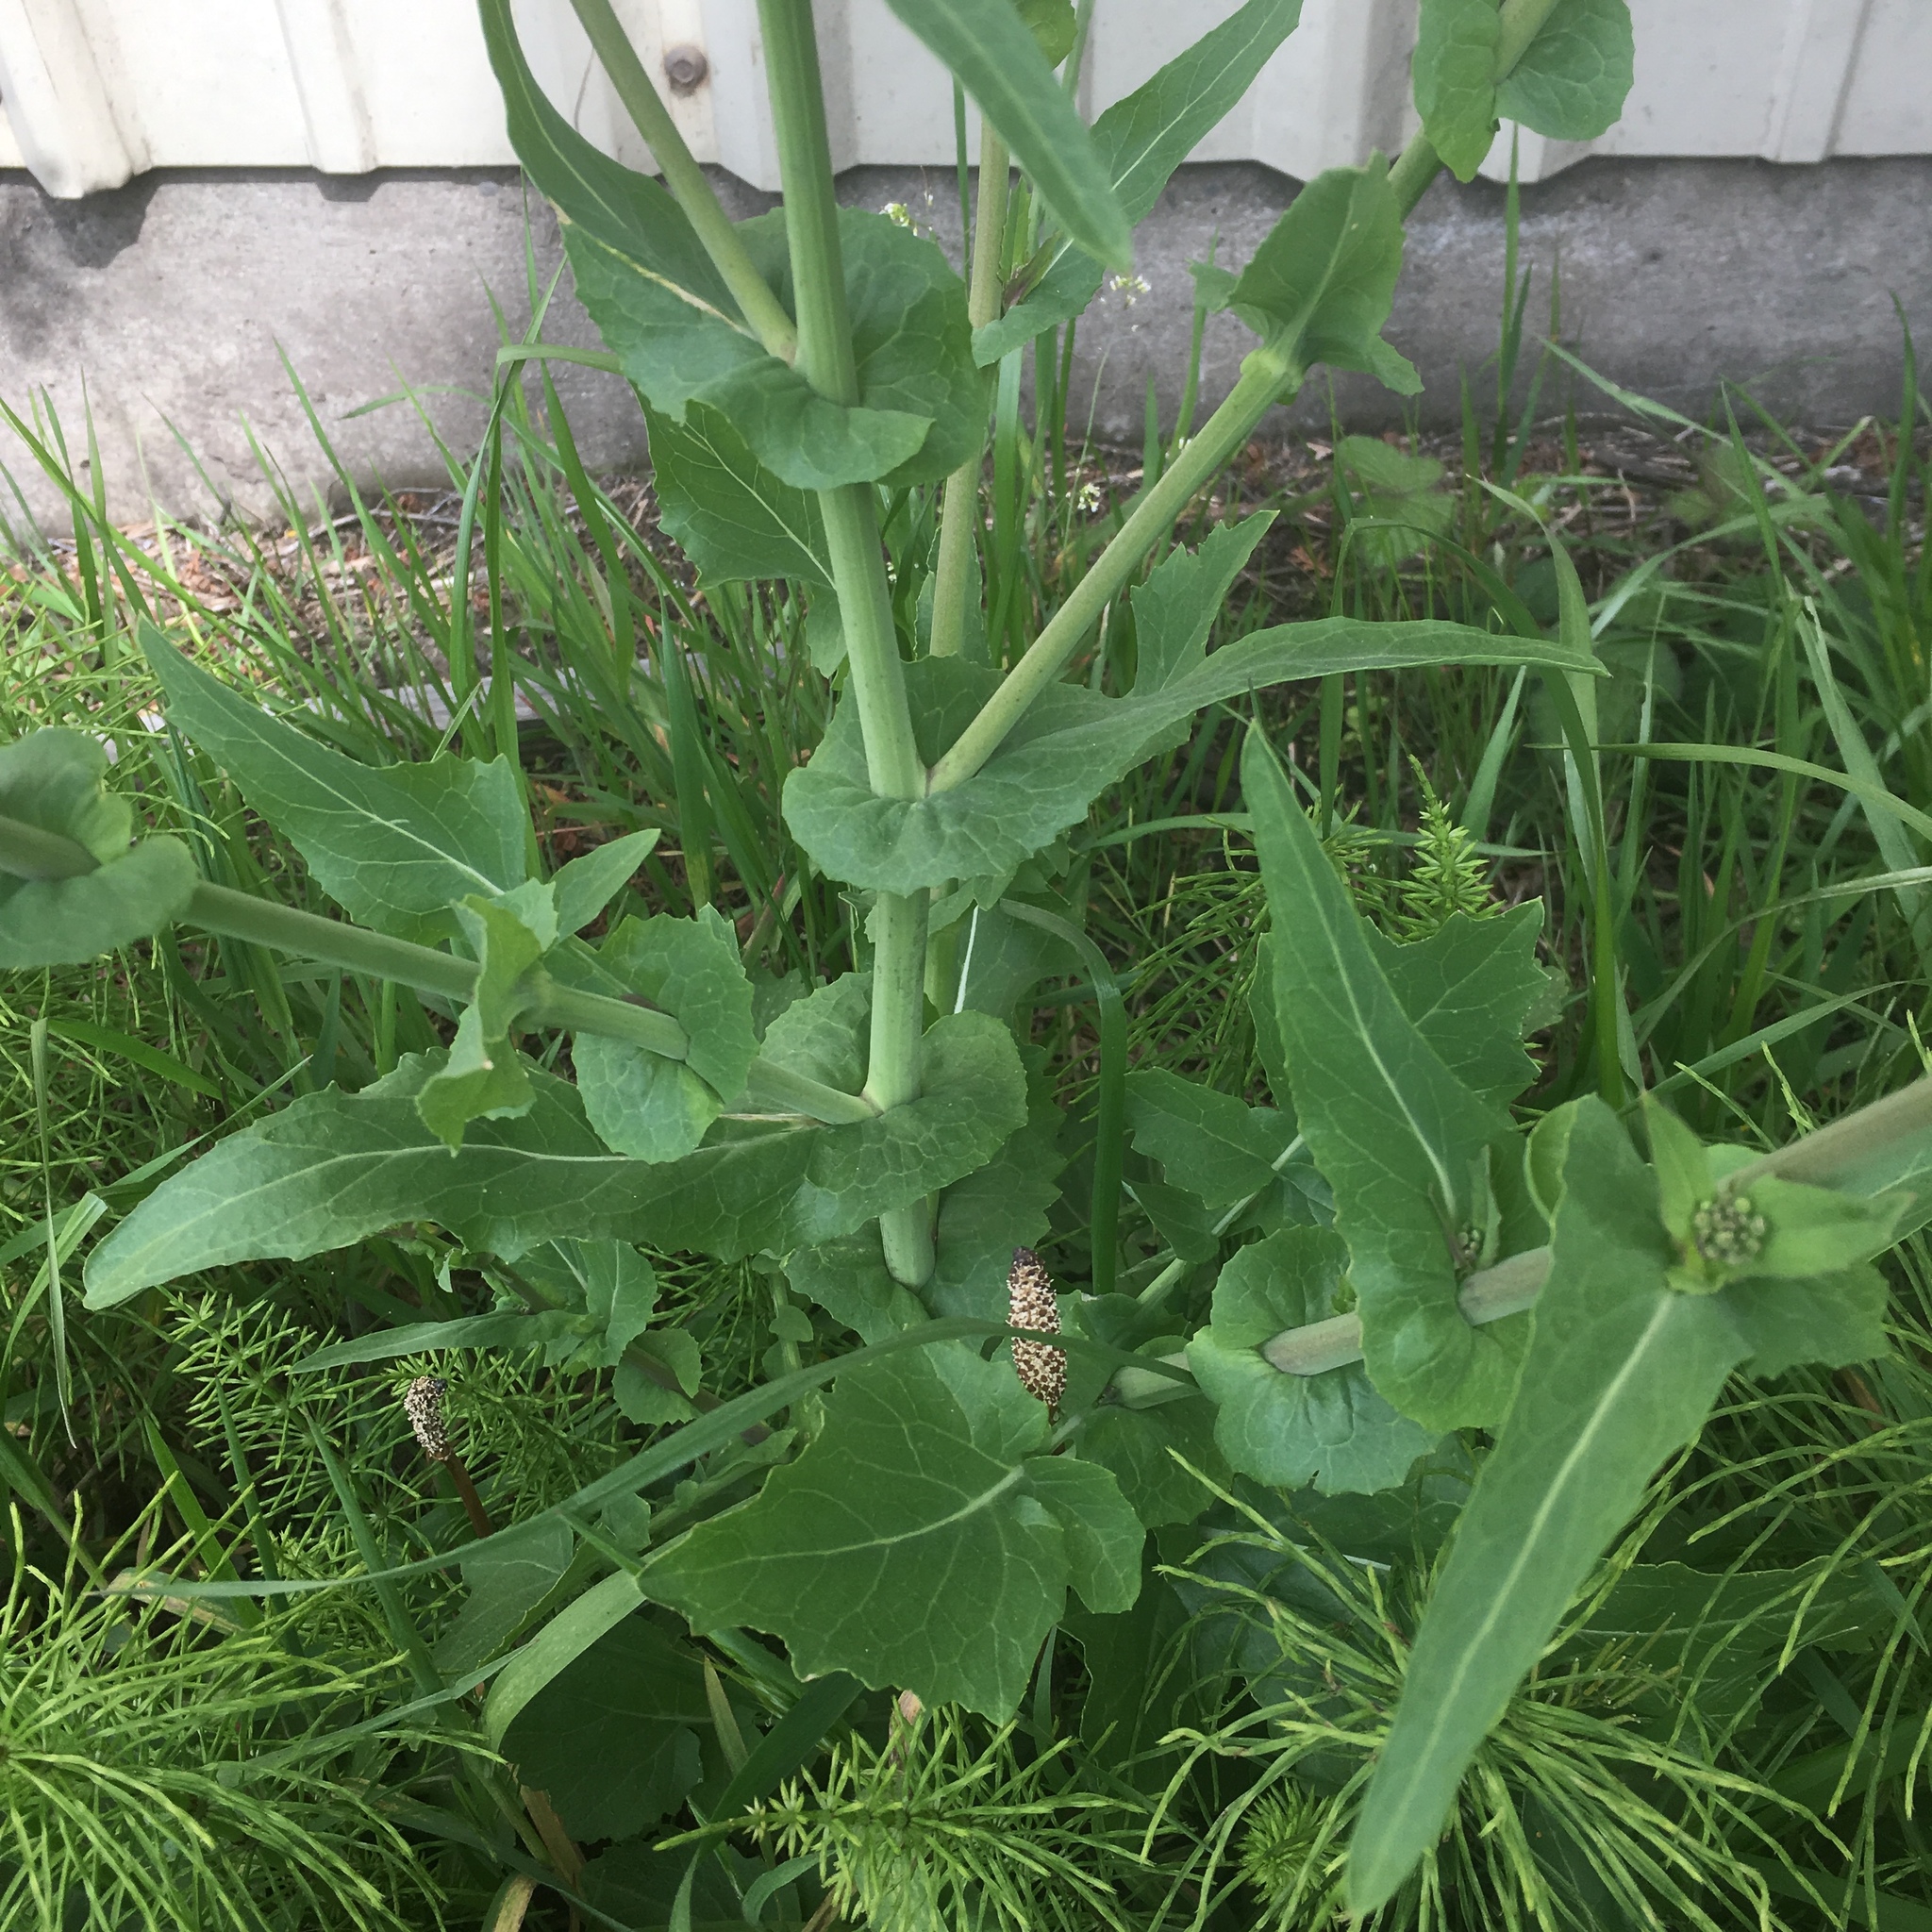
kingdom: Plantae
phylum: Tracheophyta
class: Magnoliopsida
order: Brassicales
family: Brassicaceae
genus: Brassica
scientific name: Brassica rapa
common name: Field mustard
